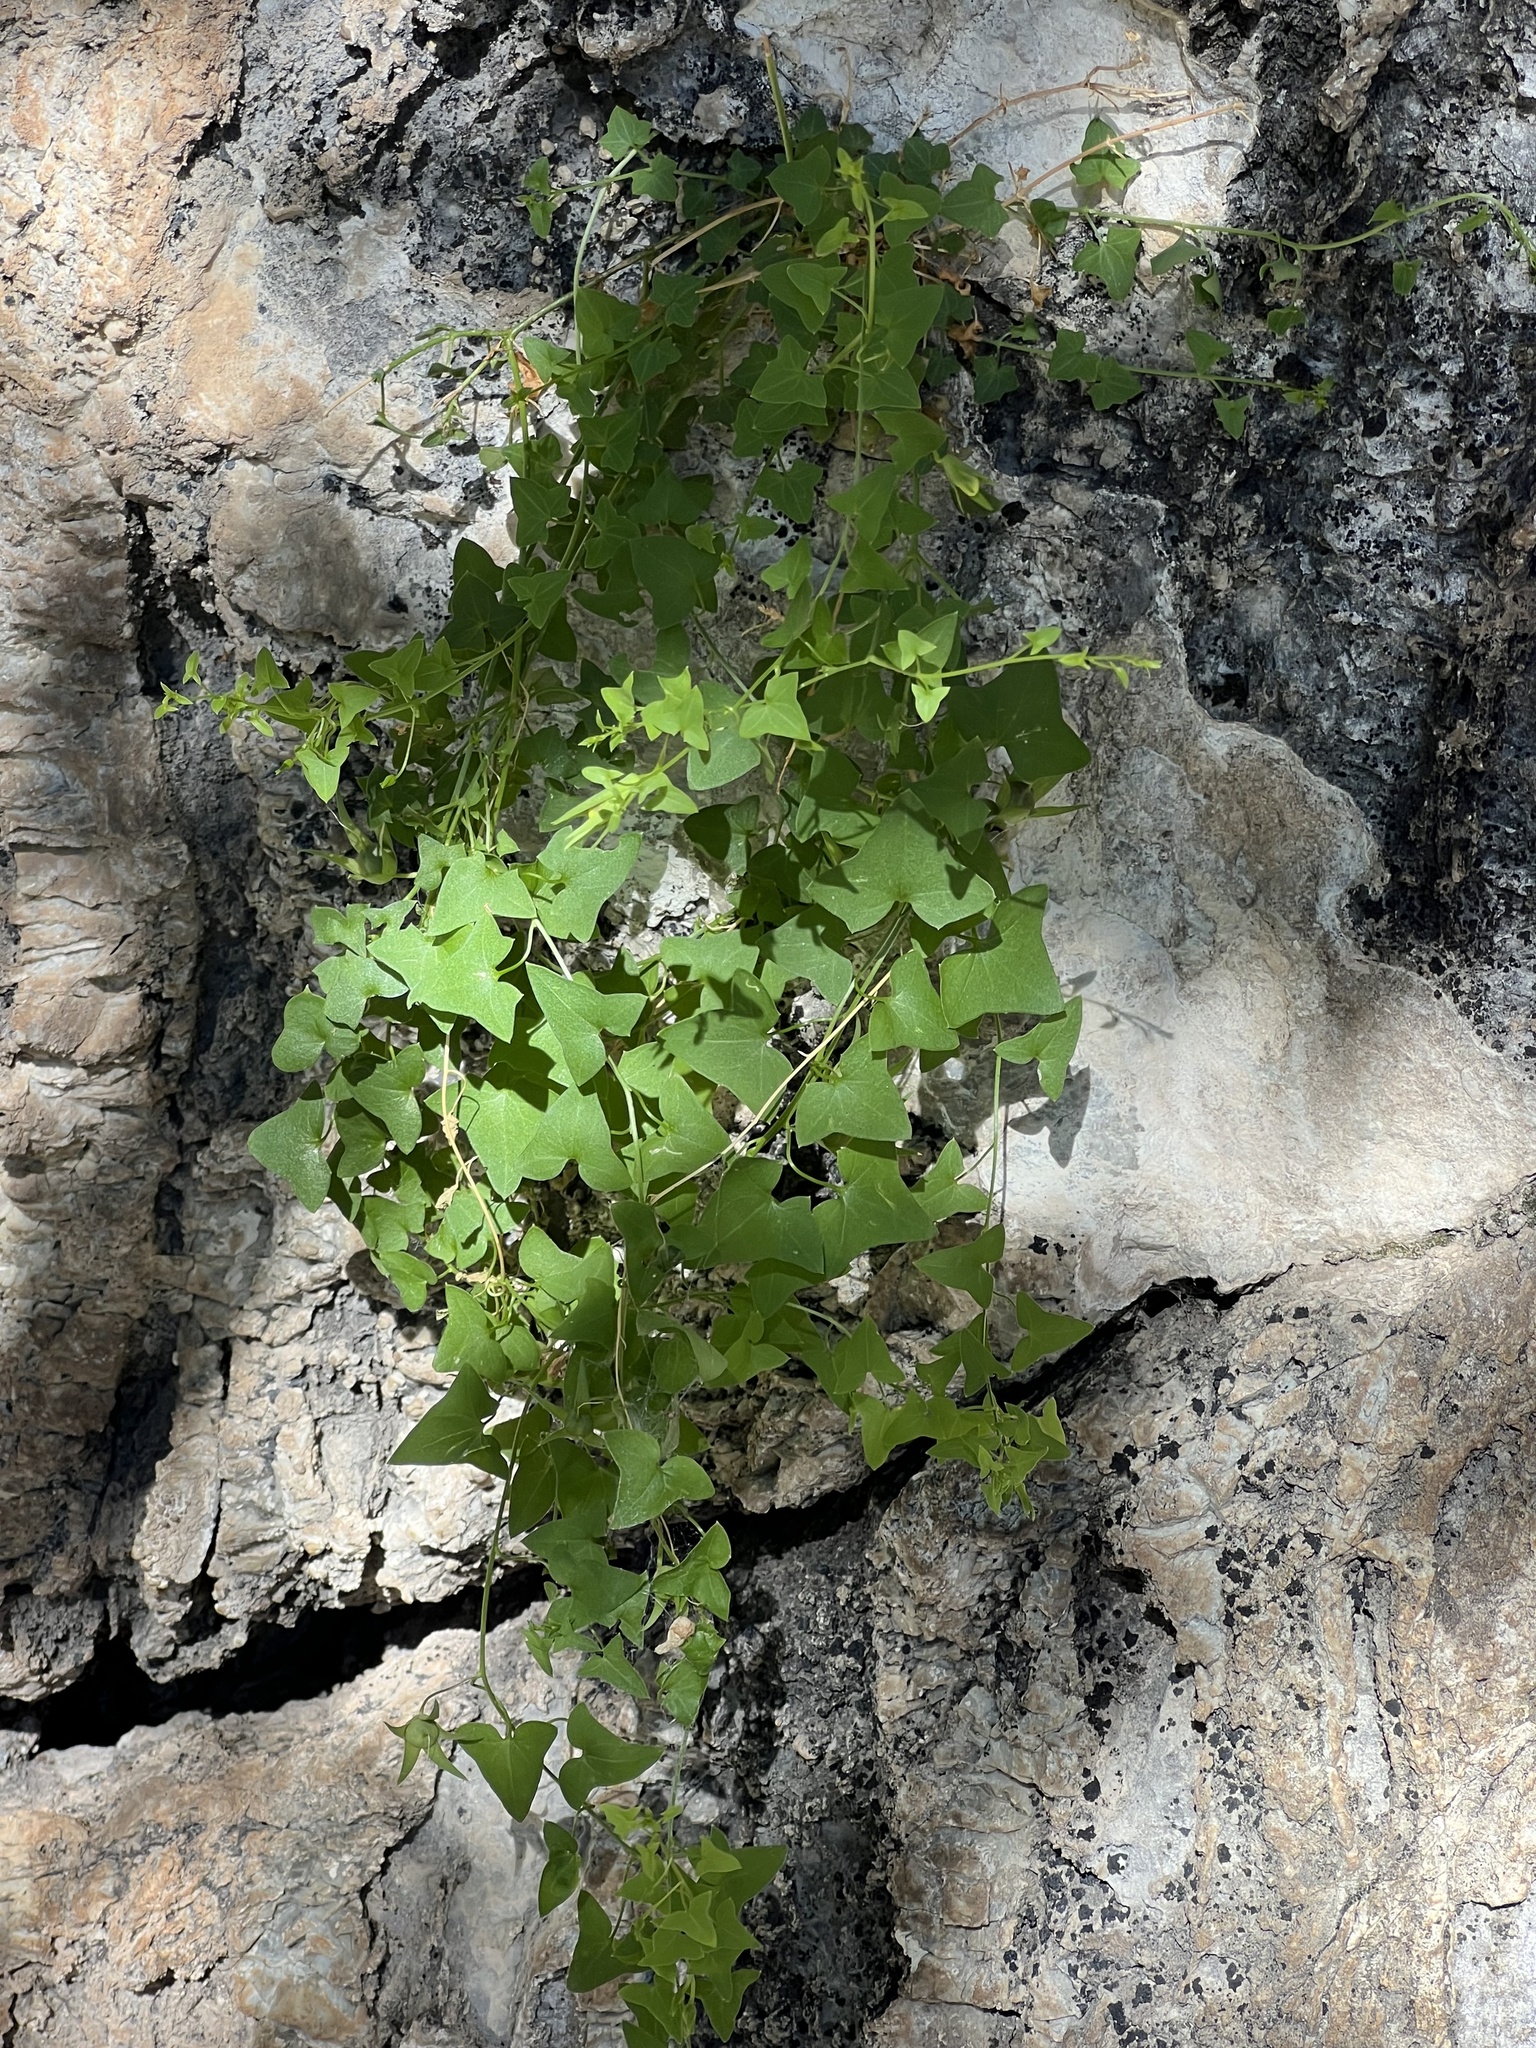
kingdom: Plantae
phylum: Tracheophyta
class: Magnoliopsida
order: Lamiales
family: Plantaginaceae
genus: Maurandella
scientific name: Maurandella antirrhiniflora
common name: Violet twining-snapdragon
